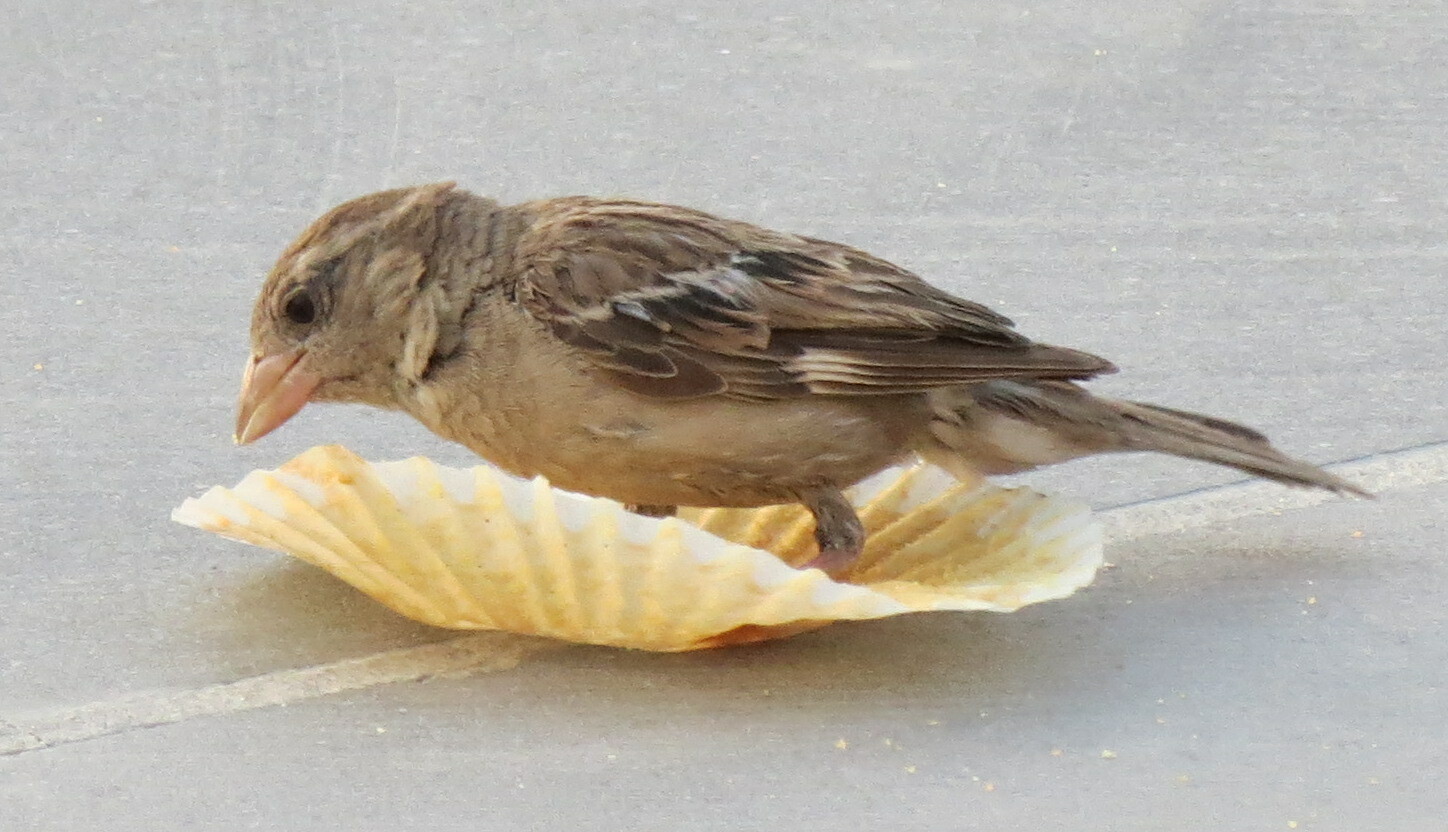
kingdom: Animalia
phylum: Chordata
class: Aves
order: Passeriformes
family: Passeridae
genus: Passer
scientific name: Passer domesticus
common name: House sparrow
